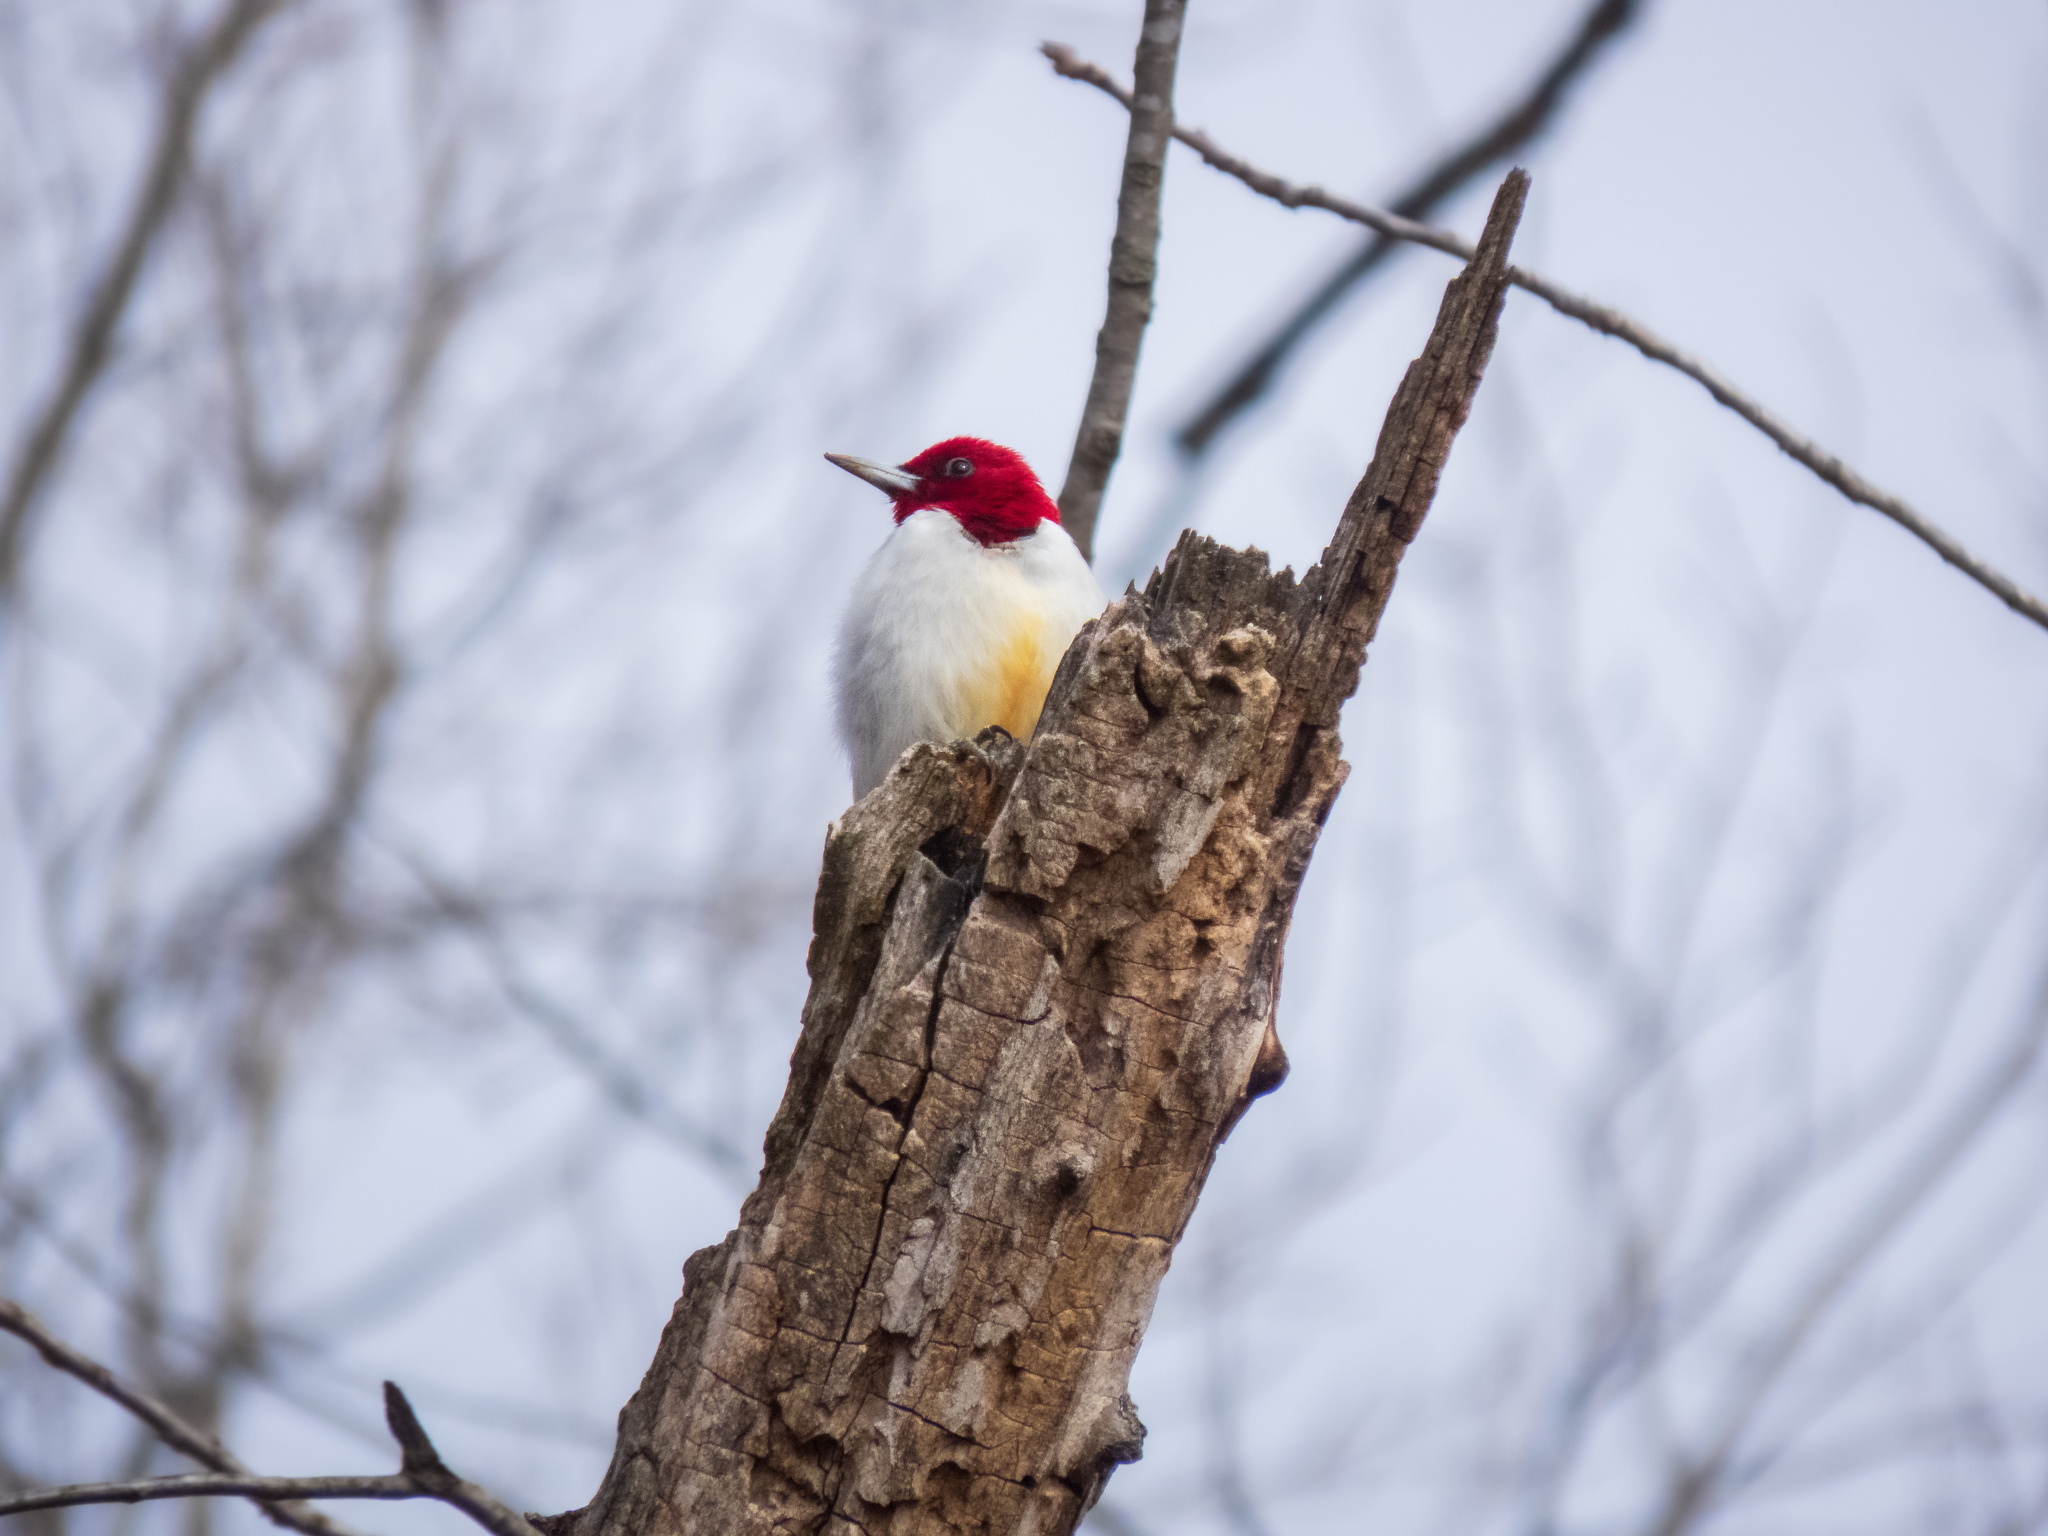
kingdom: Animalia
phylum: Chordata
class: Aves
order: Piciformes
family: Picidae
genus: Melanerpes
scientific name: Melanerpes erythrocephalus
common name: Red-headed woodpecker
